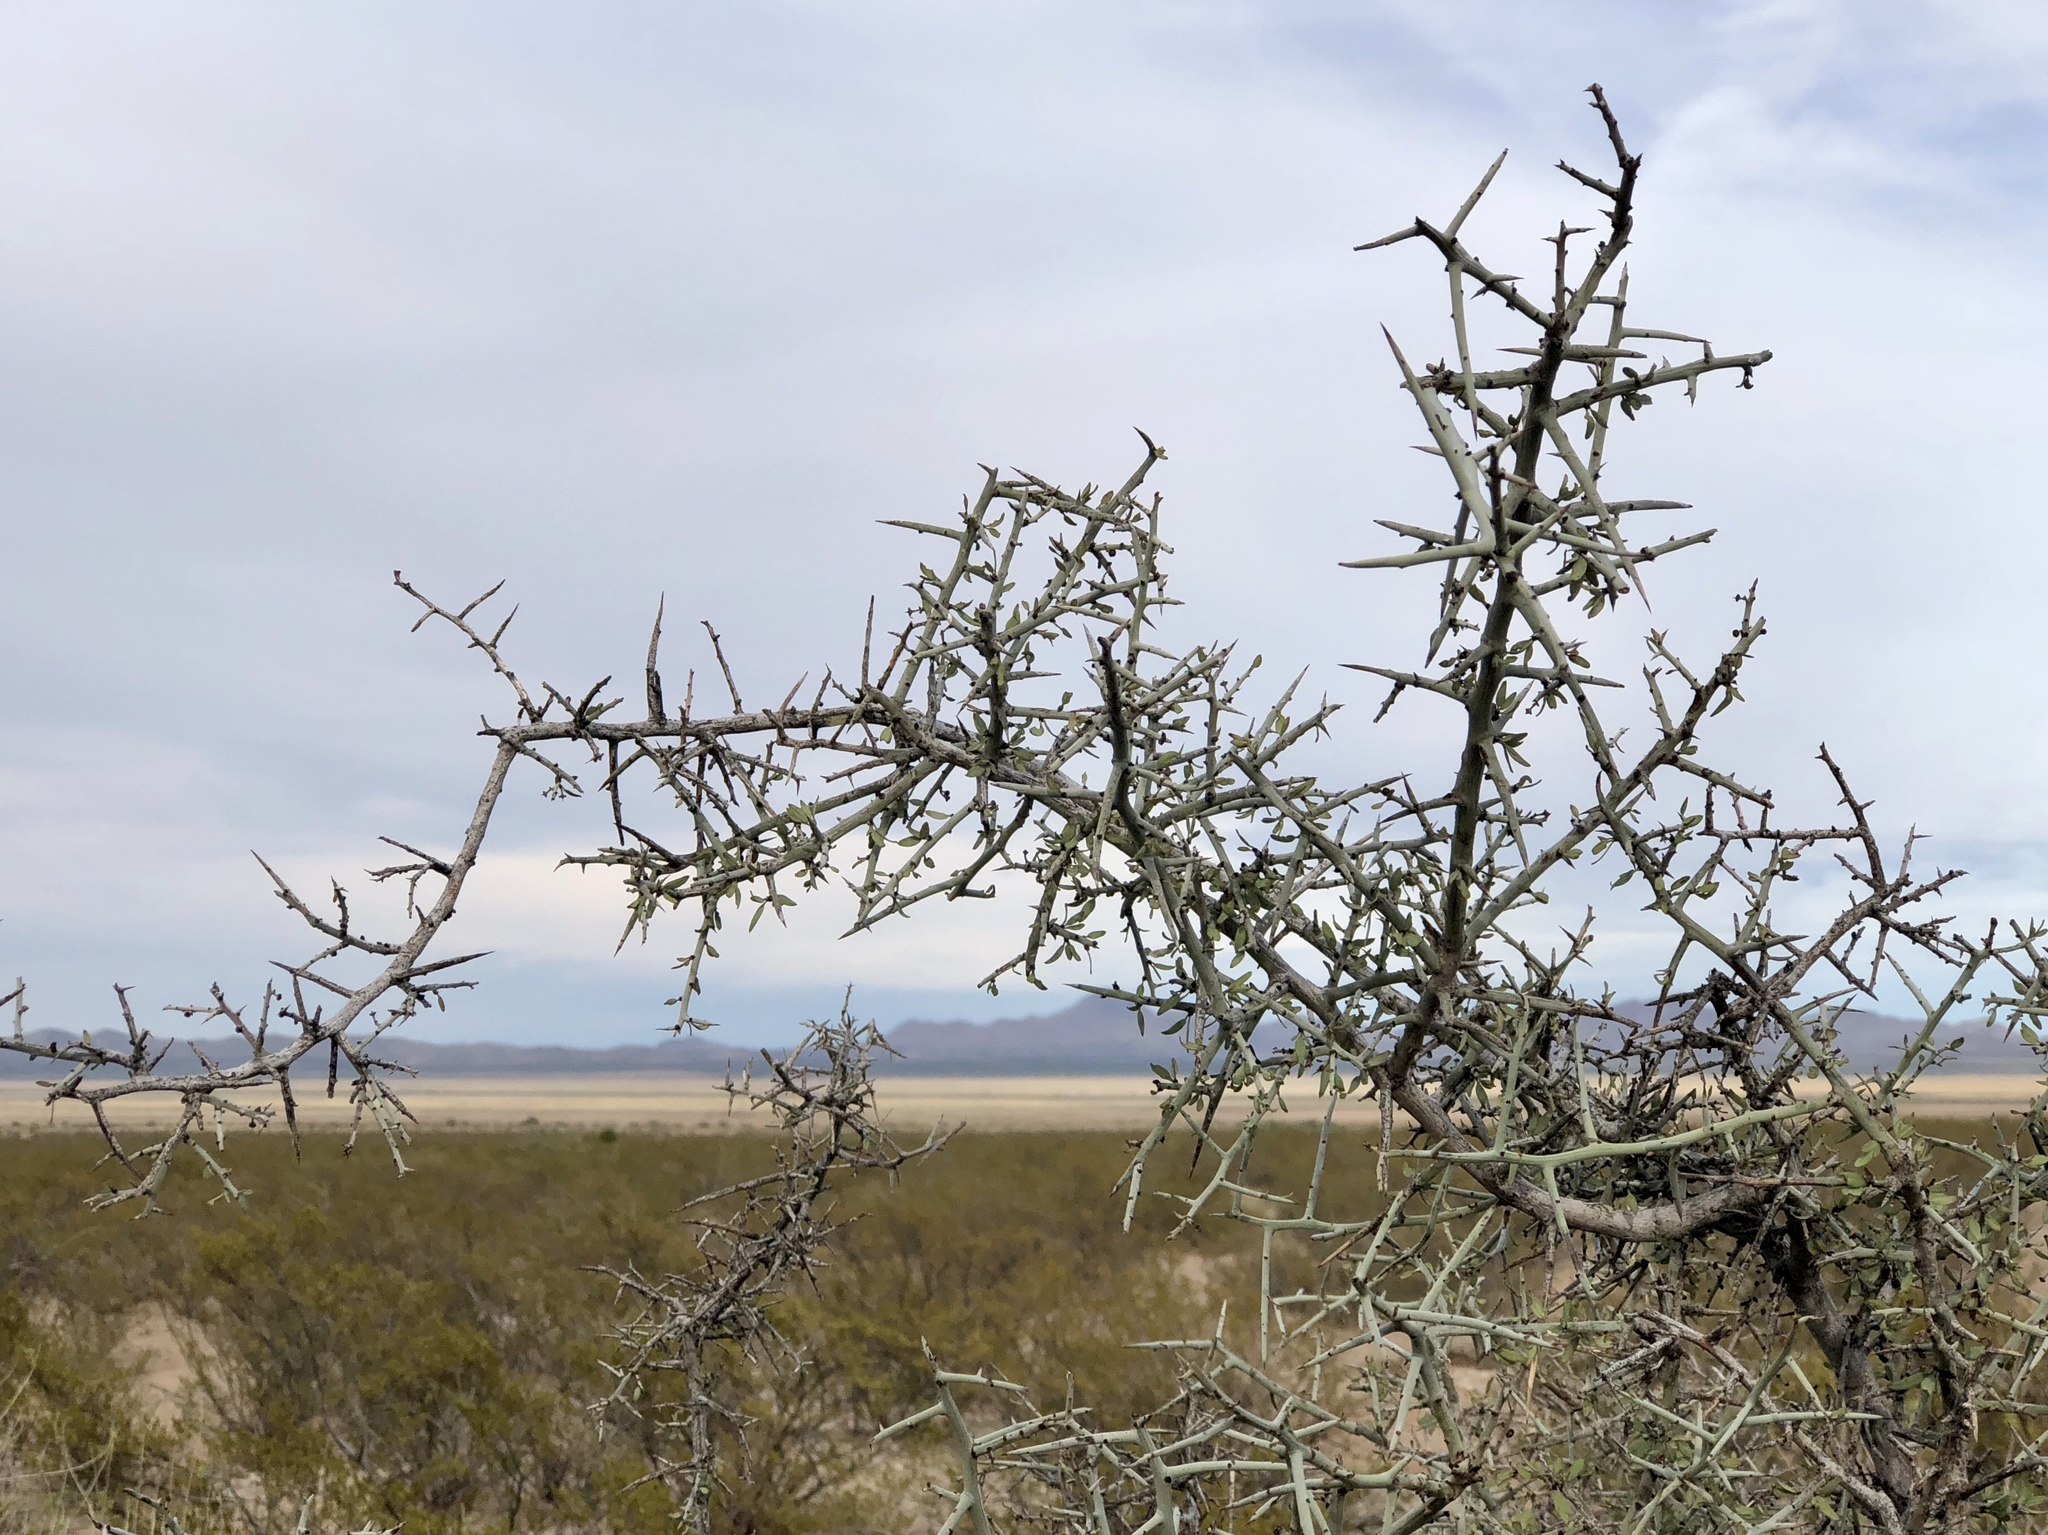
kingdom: Plantae
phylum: Tracheophyta
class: Magnoliopsida
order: Rosales
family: Rhamnaceae
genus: Sarcomphalus
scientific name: Sarcomphalus obtusifolius
